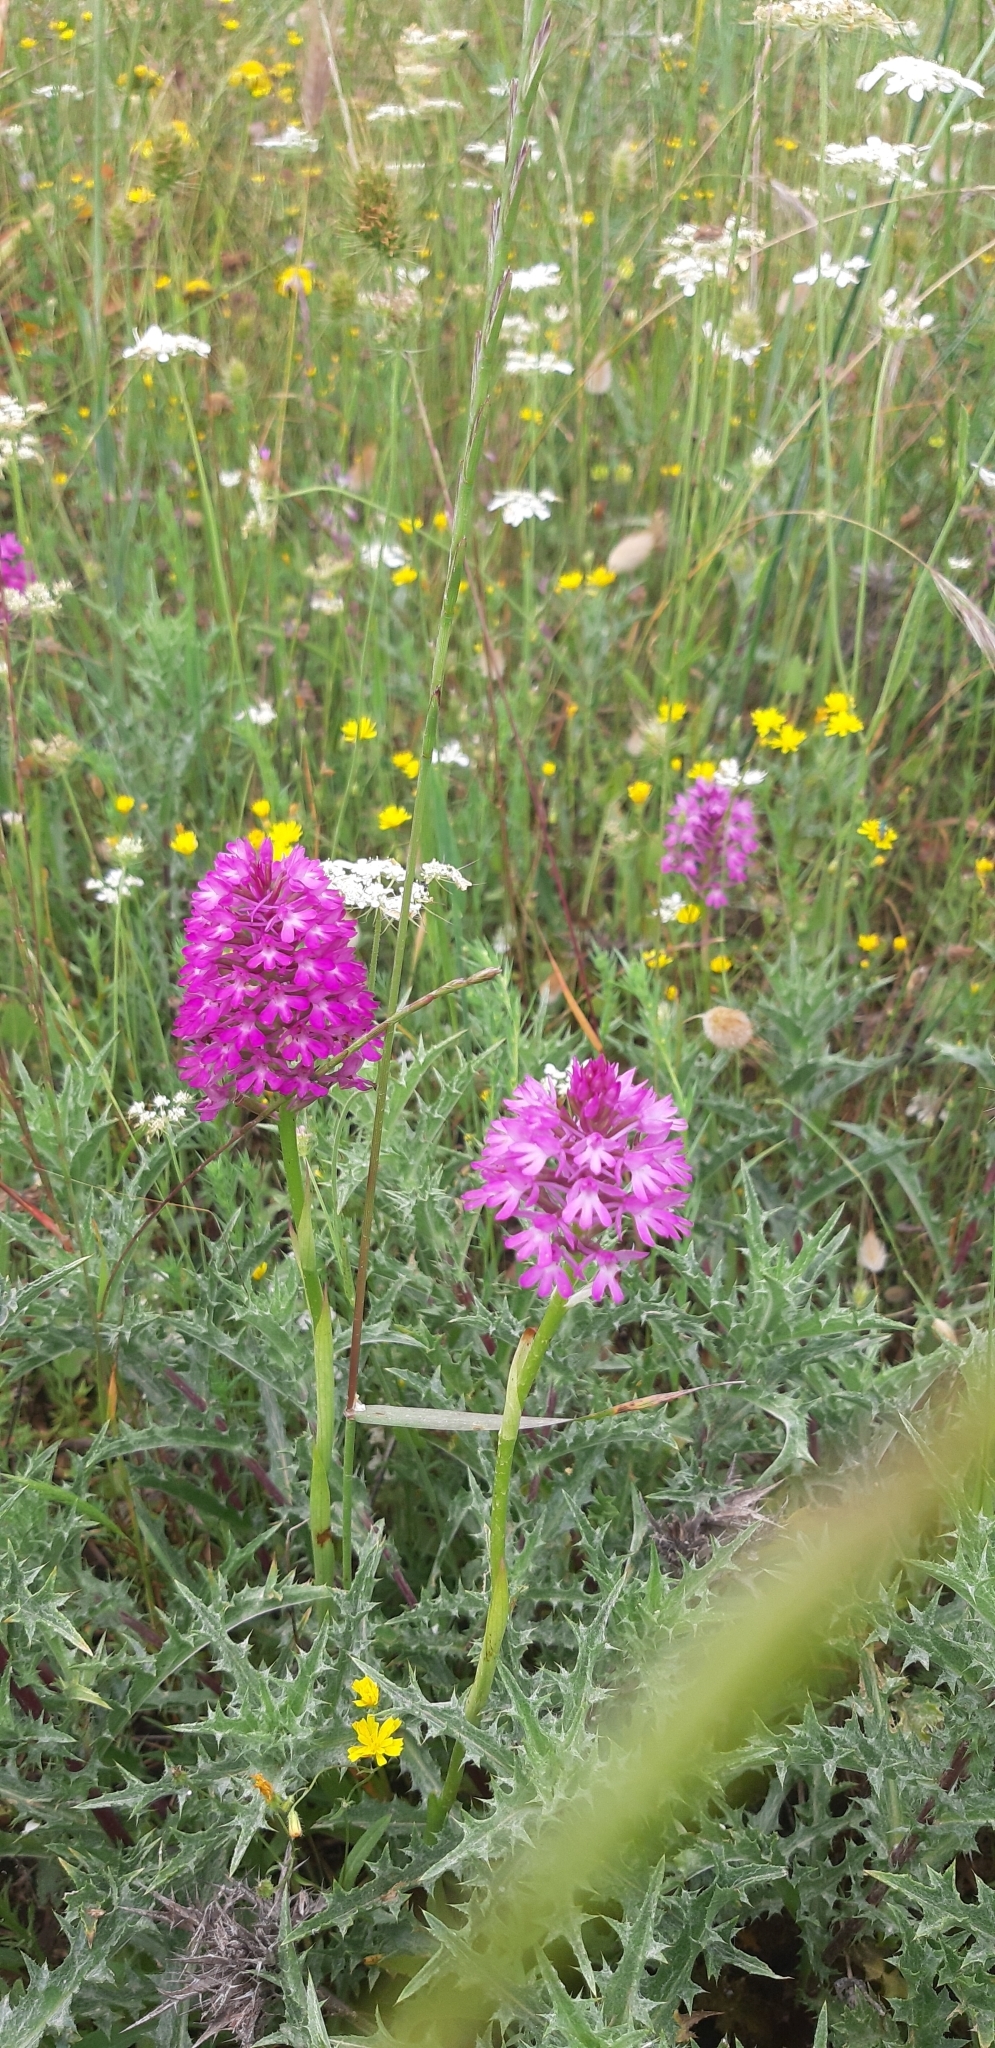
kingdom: Plantae
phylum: Tracheophyta
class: Liliopsida
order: Asparagales
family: Orchidaceae
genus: Anacamptis
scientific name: Anacamptis pyramidalis
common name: Pyramidal orchid
